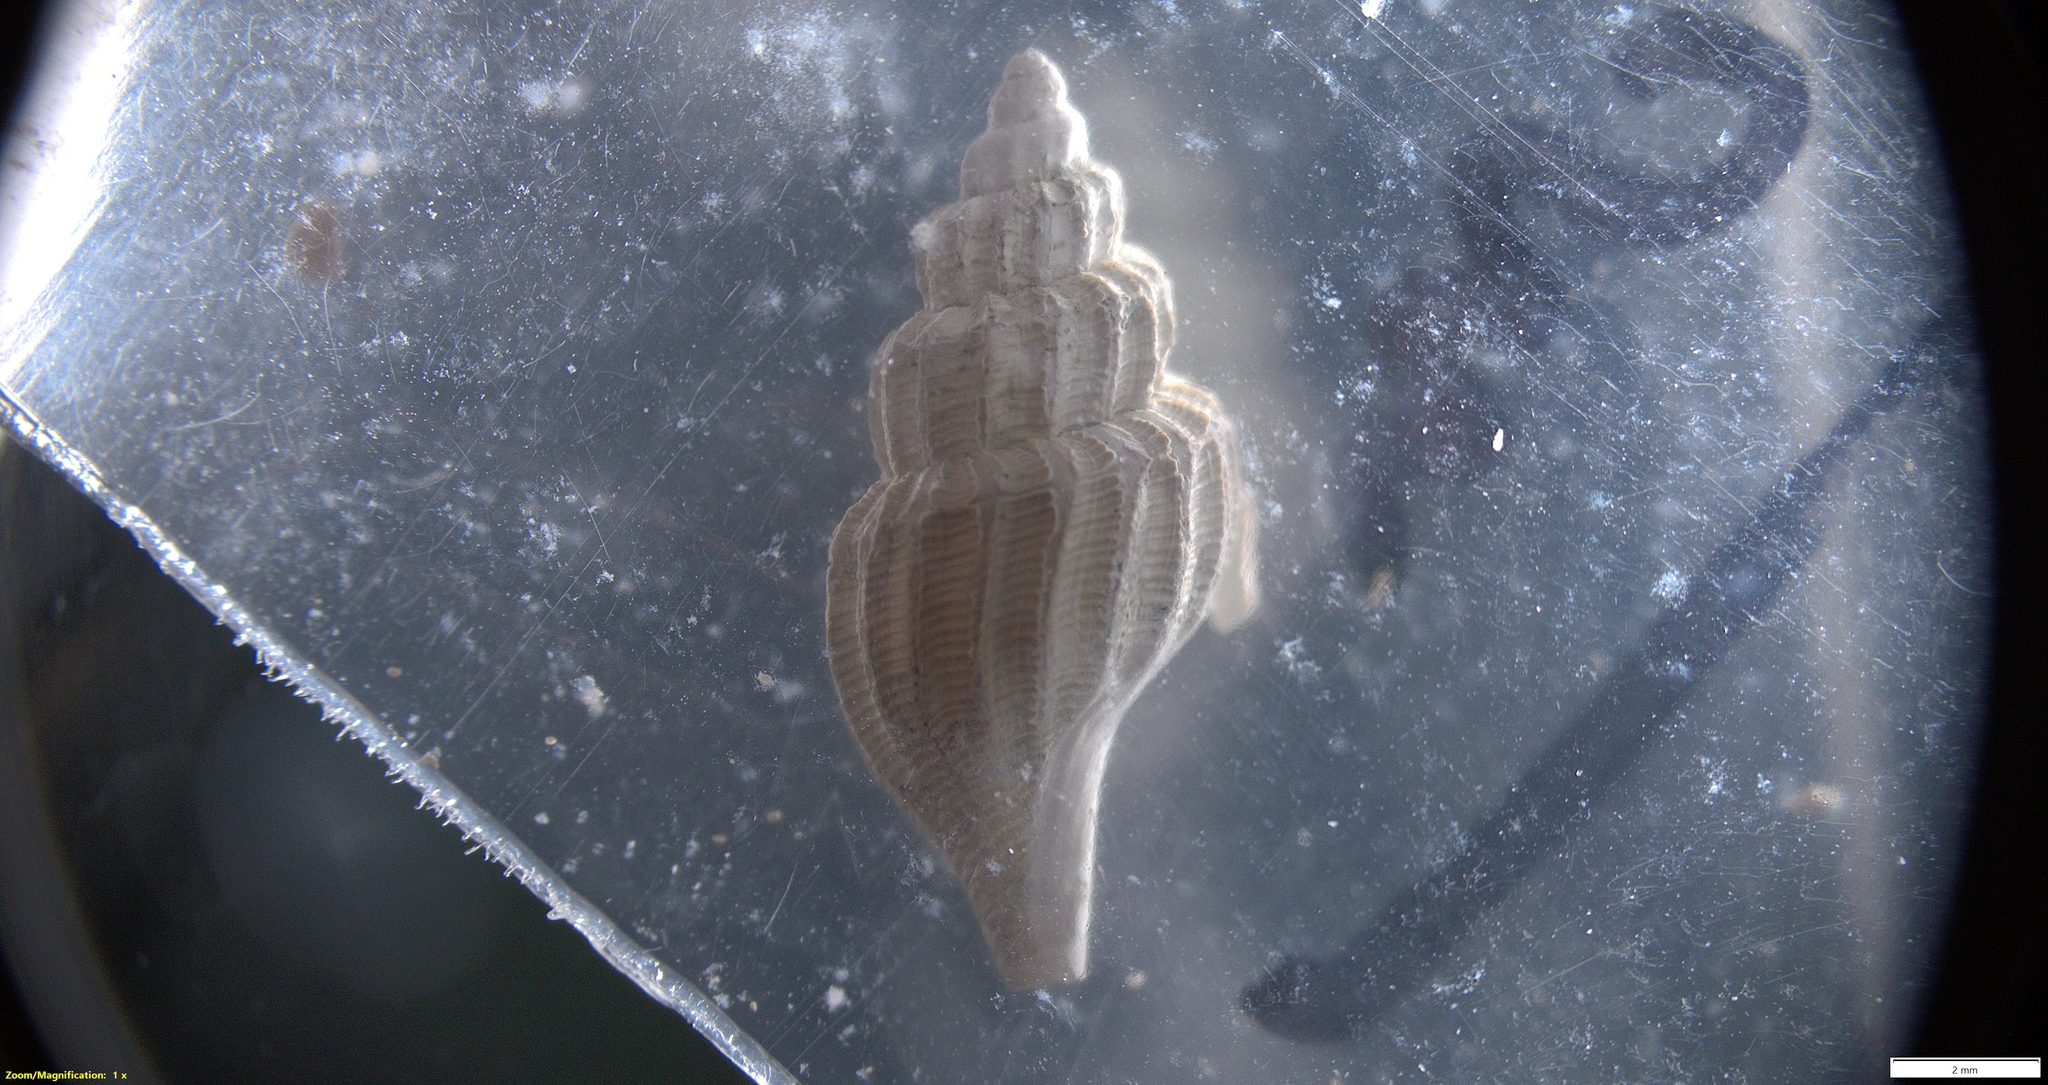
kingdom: Animalia
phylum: Mollusca
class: Gastropoda
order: Neogastropoda
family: Mangeliidae
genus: Propebela
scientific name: Propebela scalaris
